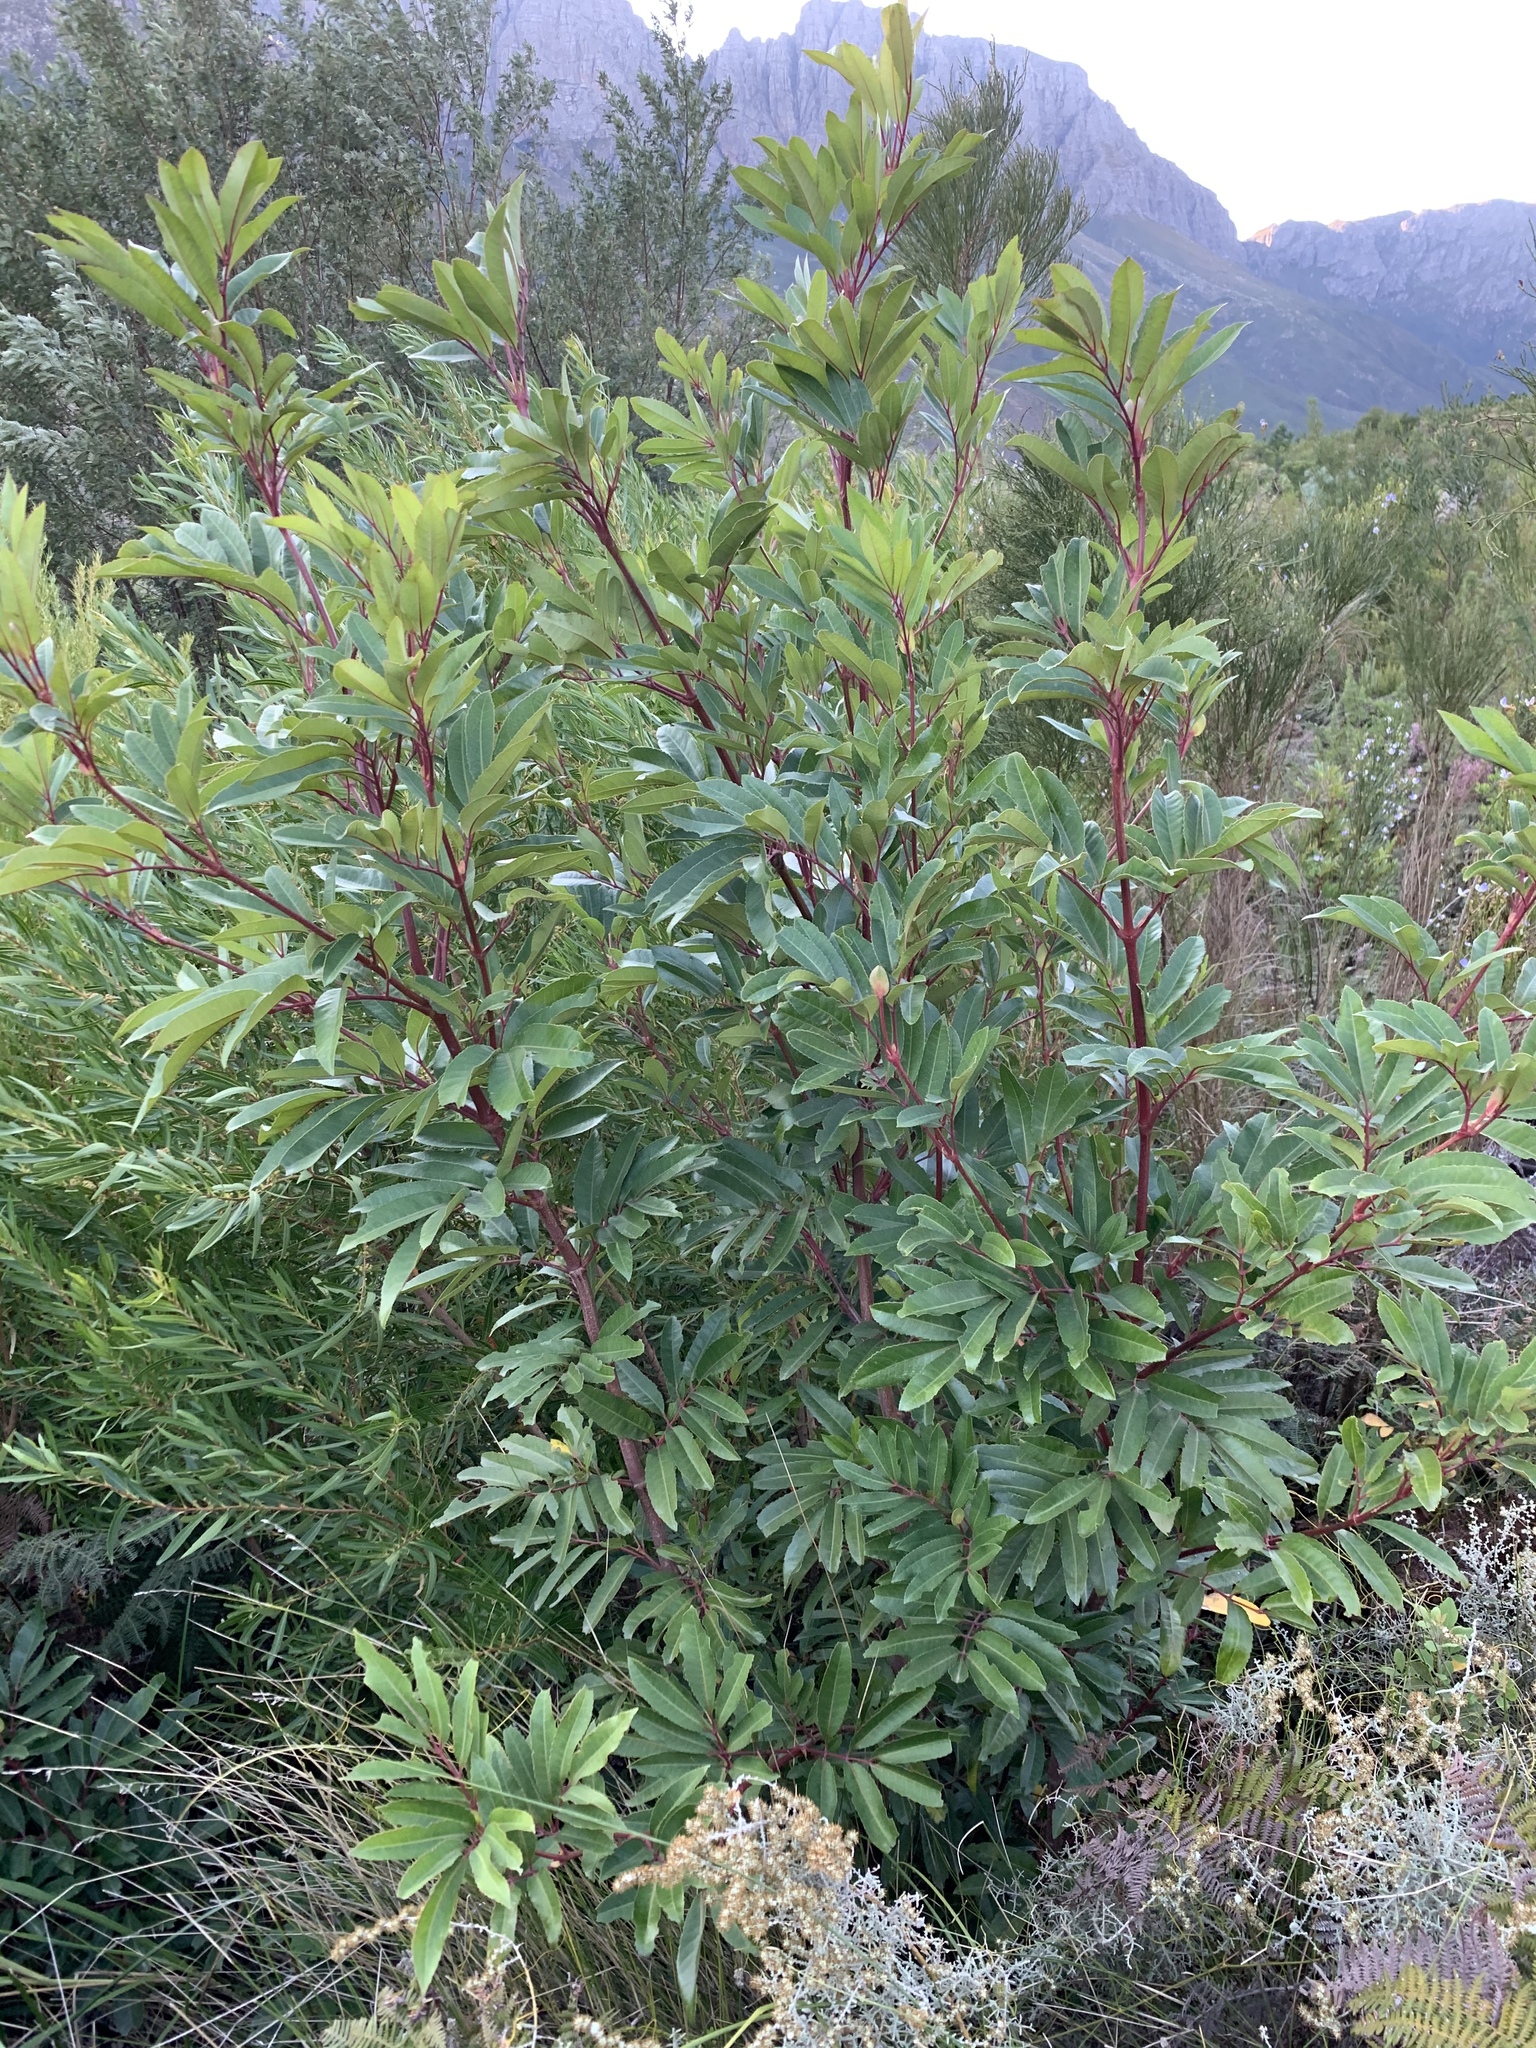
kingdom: Plantae
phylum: Tracheophyta
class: Magnoliopsida
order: Oxalidales
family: Cunoniaceae
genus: Cunonia
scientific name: Cunonia capensis
